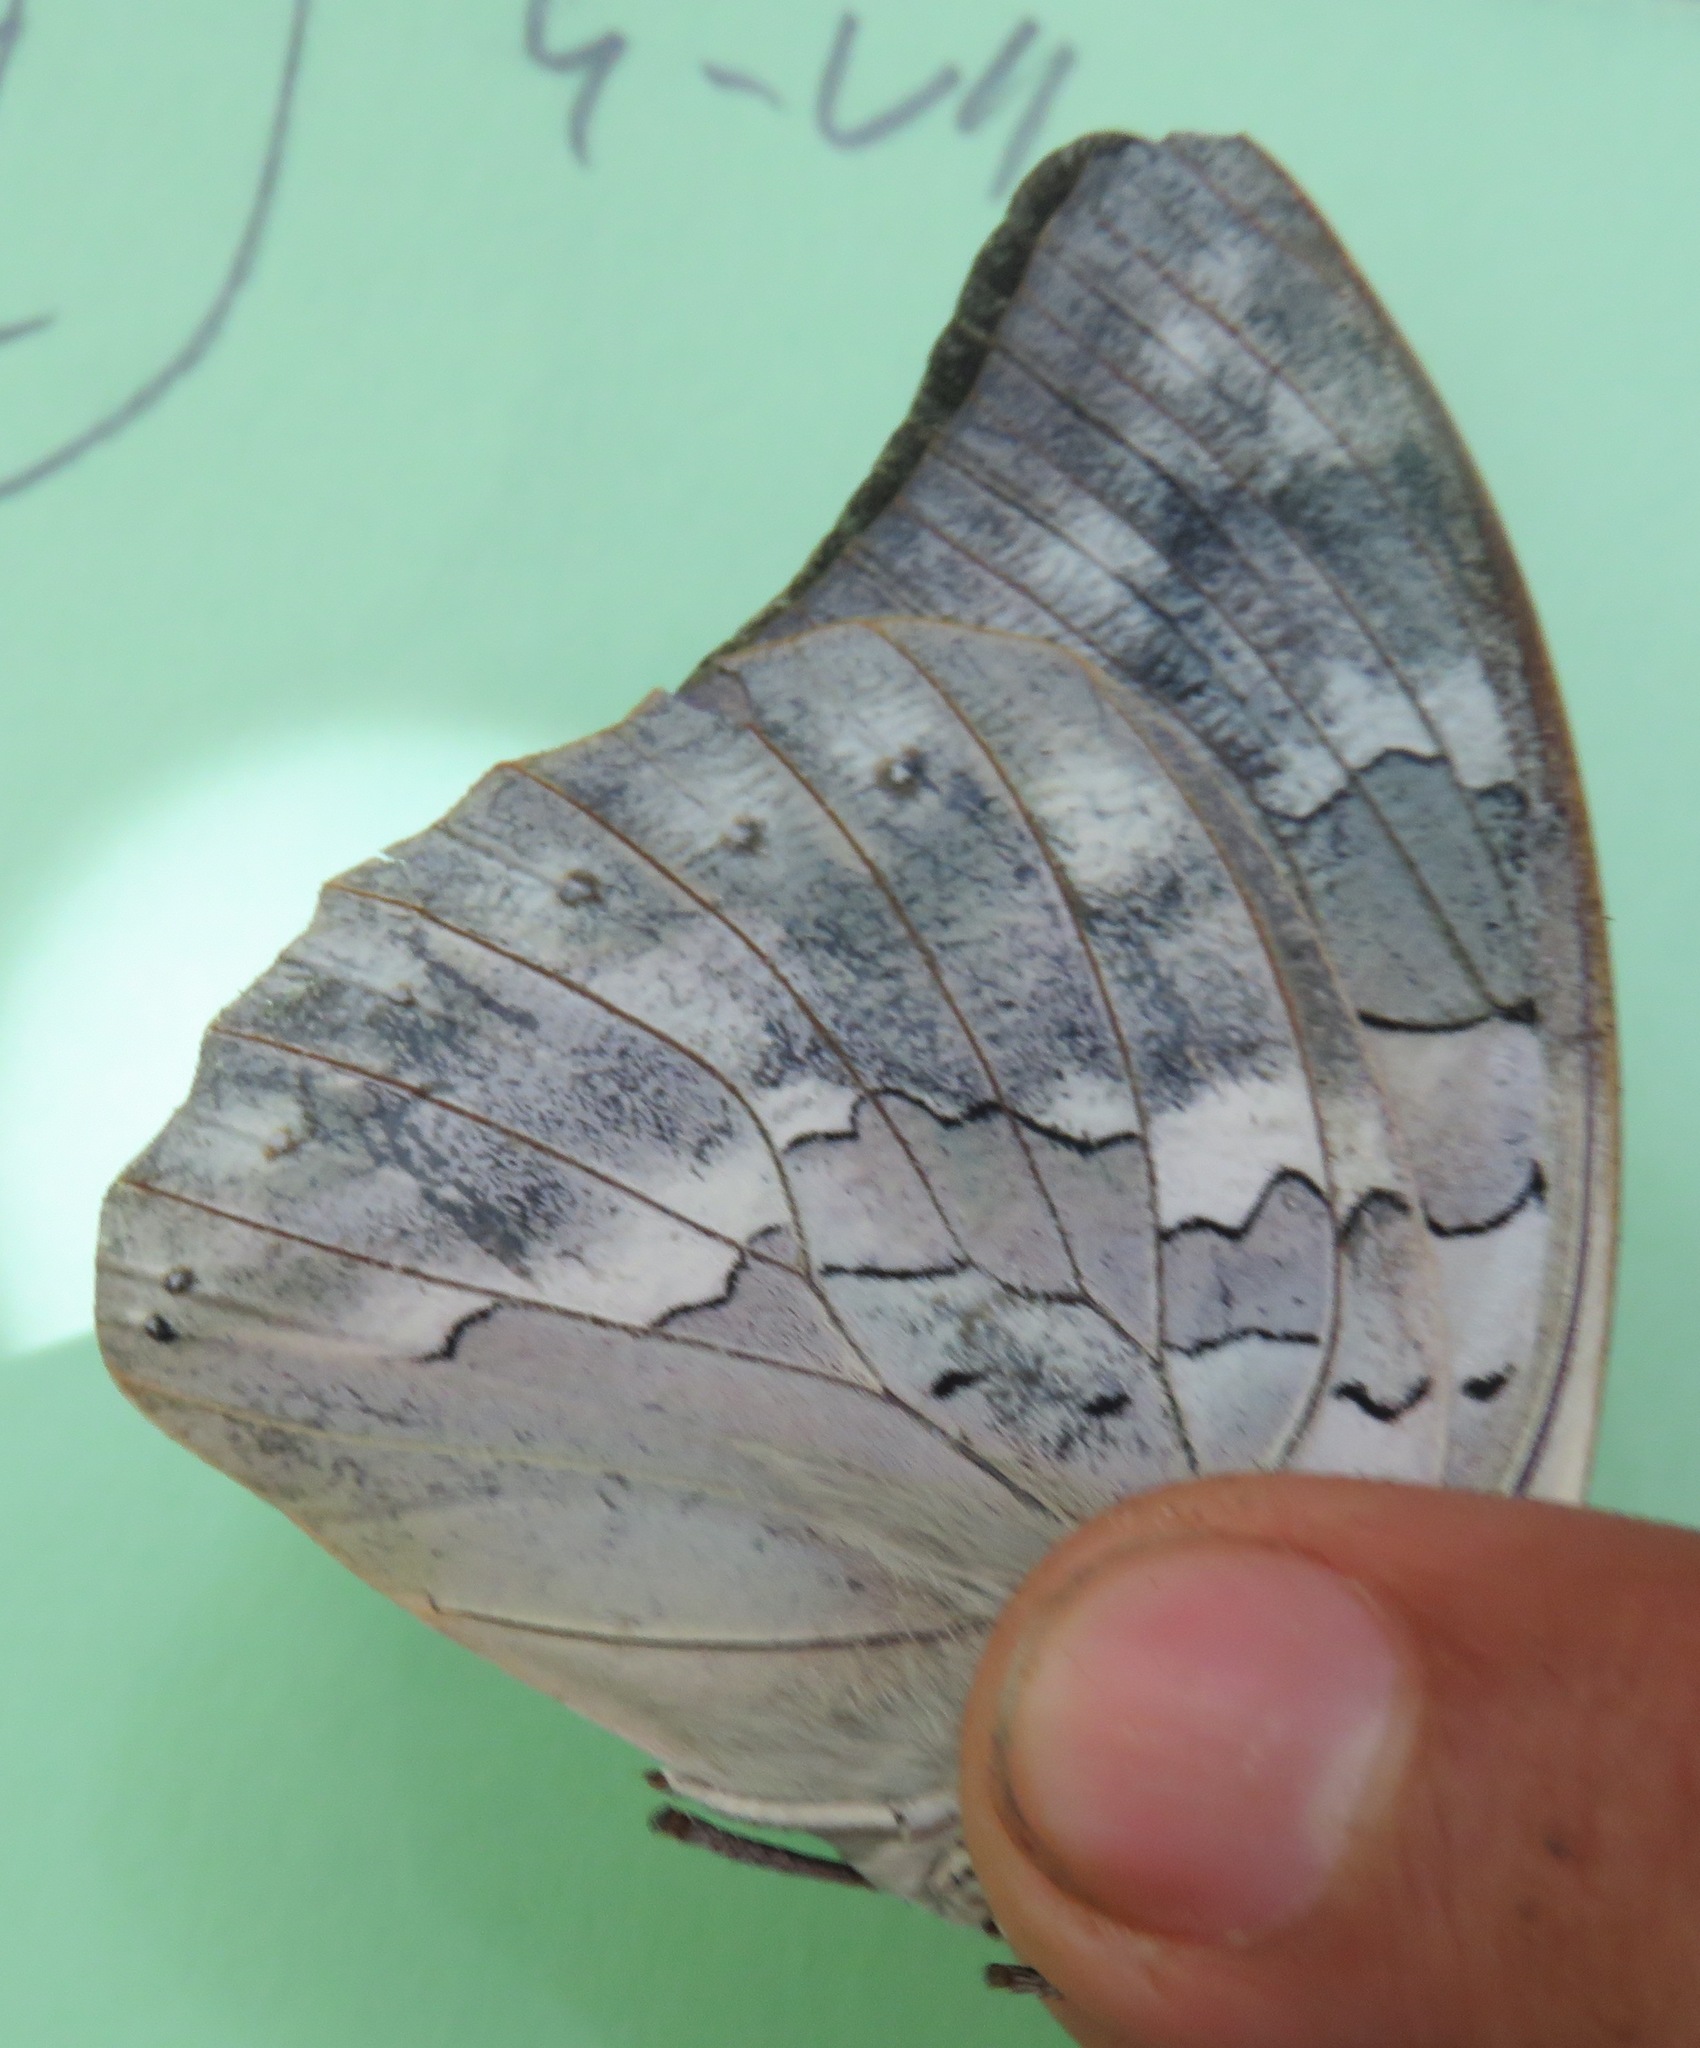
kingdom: Animalia
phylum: Arthropoda
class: Insecta
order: Lepidoptera
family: Nymphalidae
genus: Prepona
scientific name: Prepona Archaeoprepona demophoon
